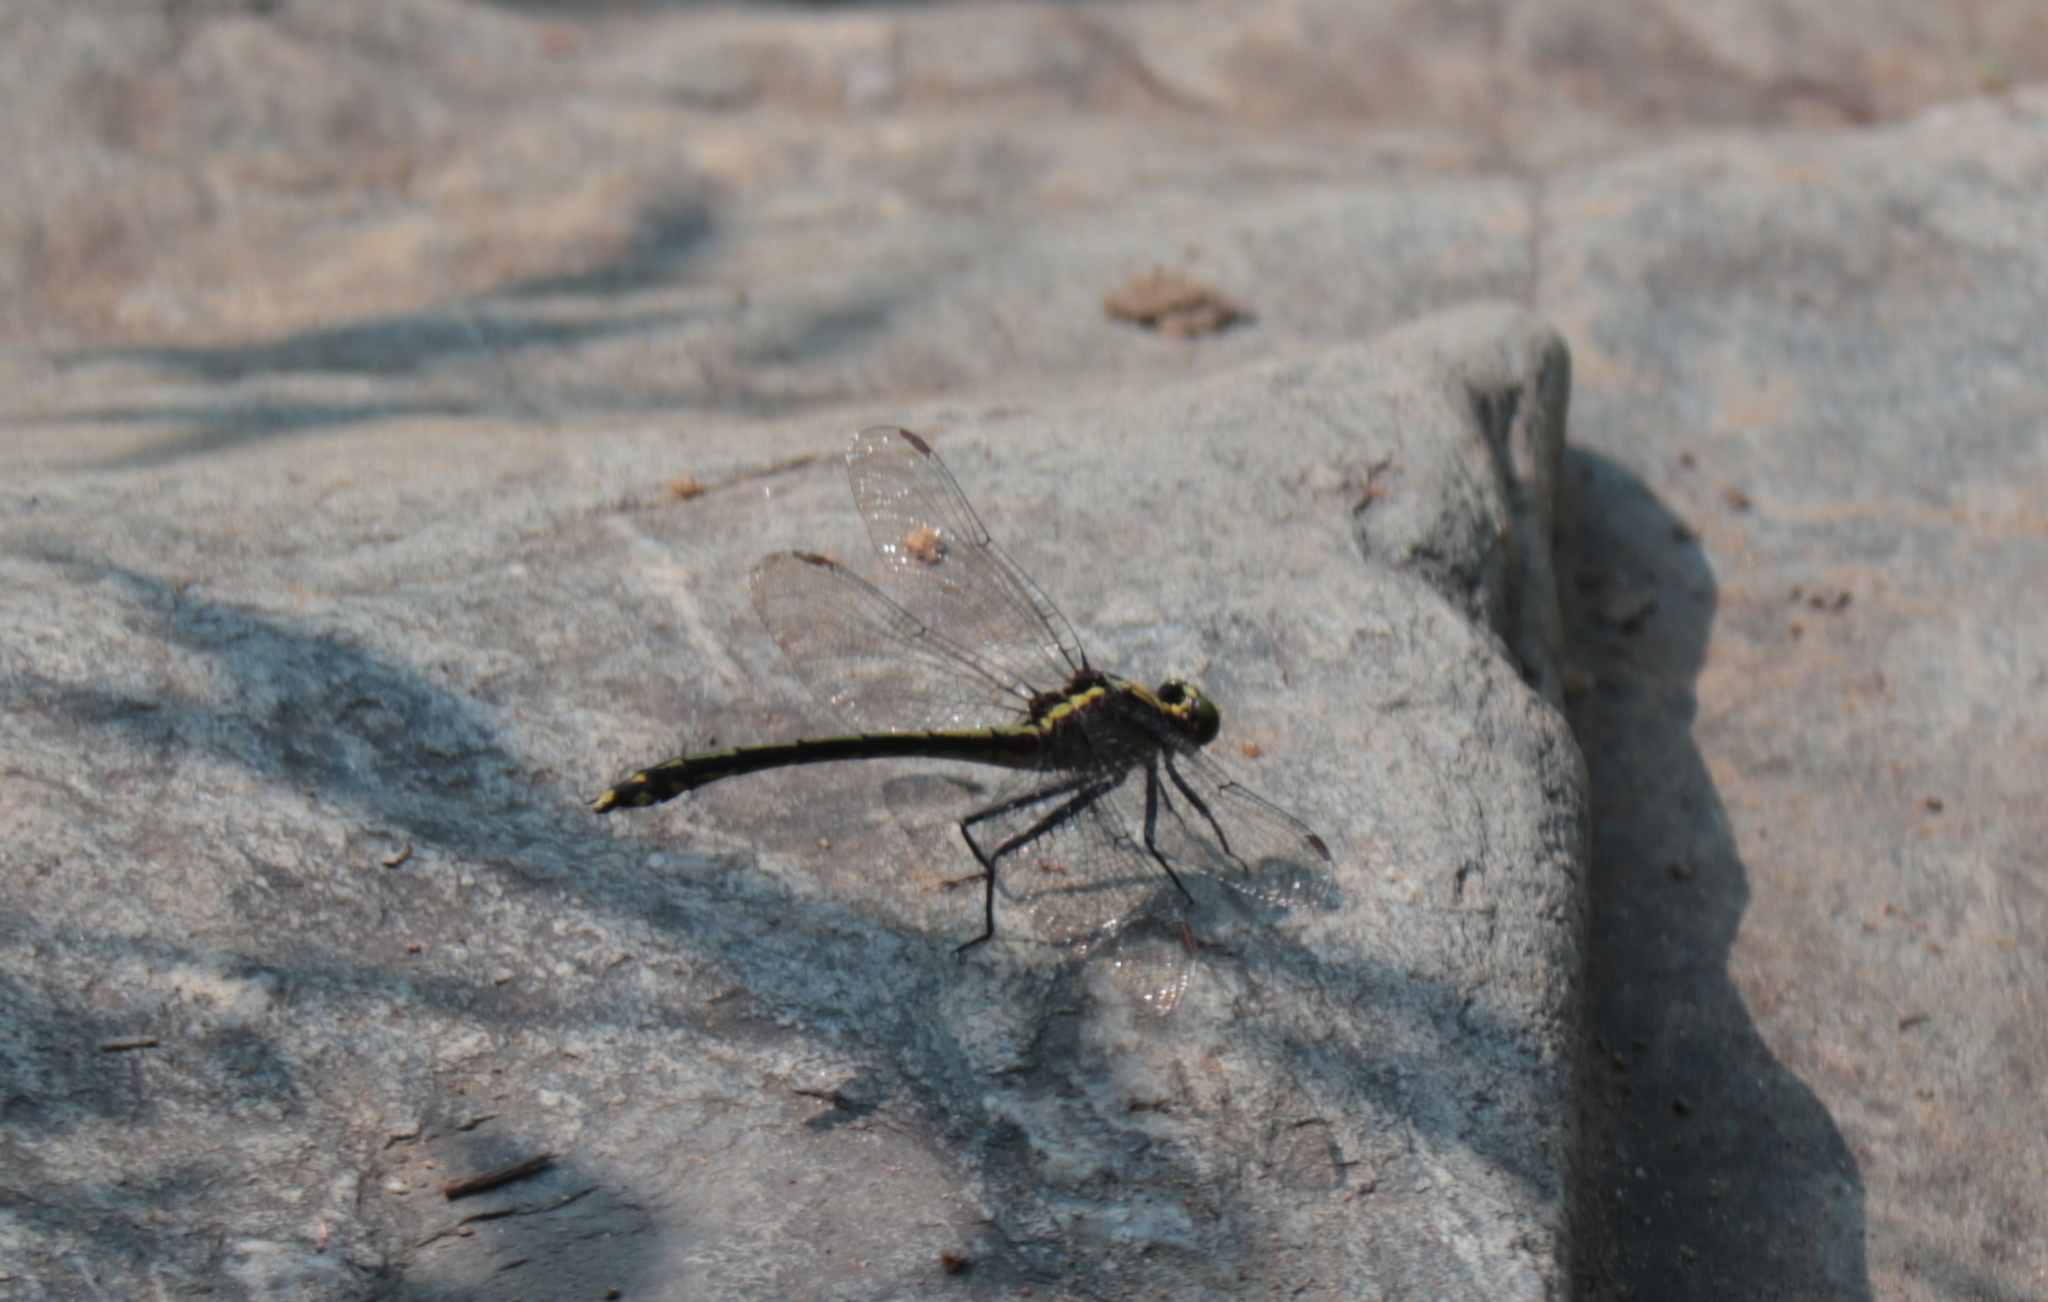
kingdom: Animalia
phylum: Arthropoda
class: Insecta
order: Odonata
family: Gomphidae
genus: Dromogomphus
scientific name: Dromogomphus spinosus
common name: Black-shouldered spinyleg
